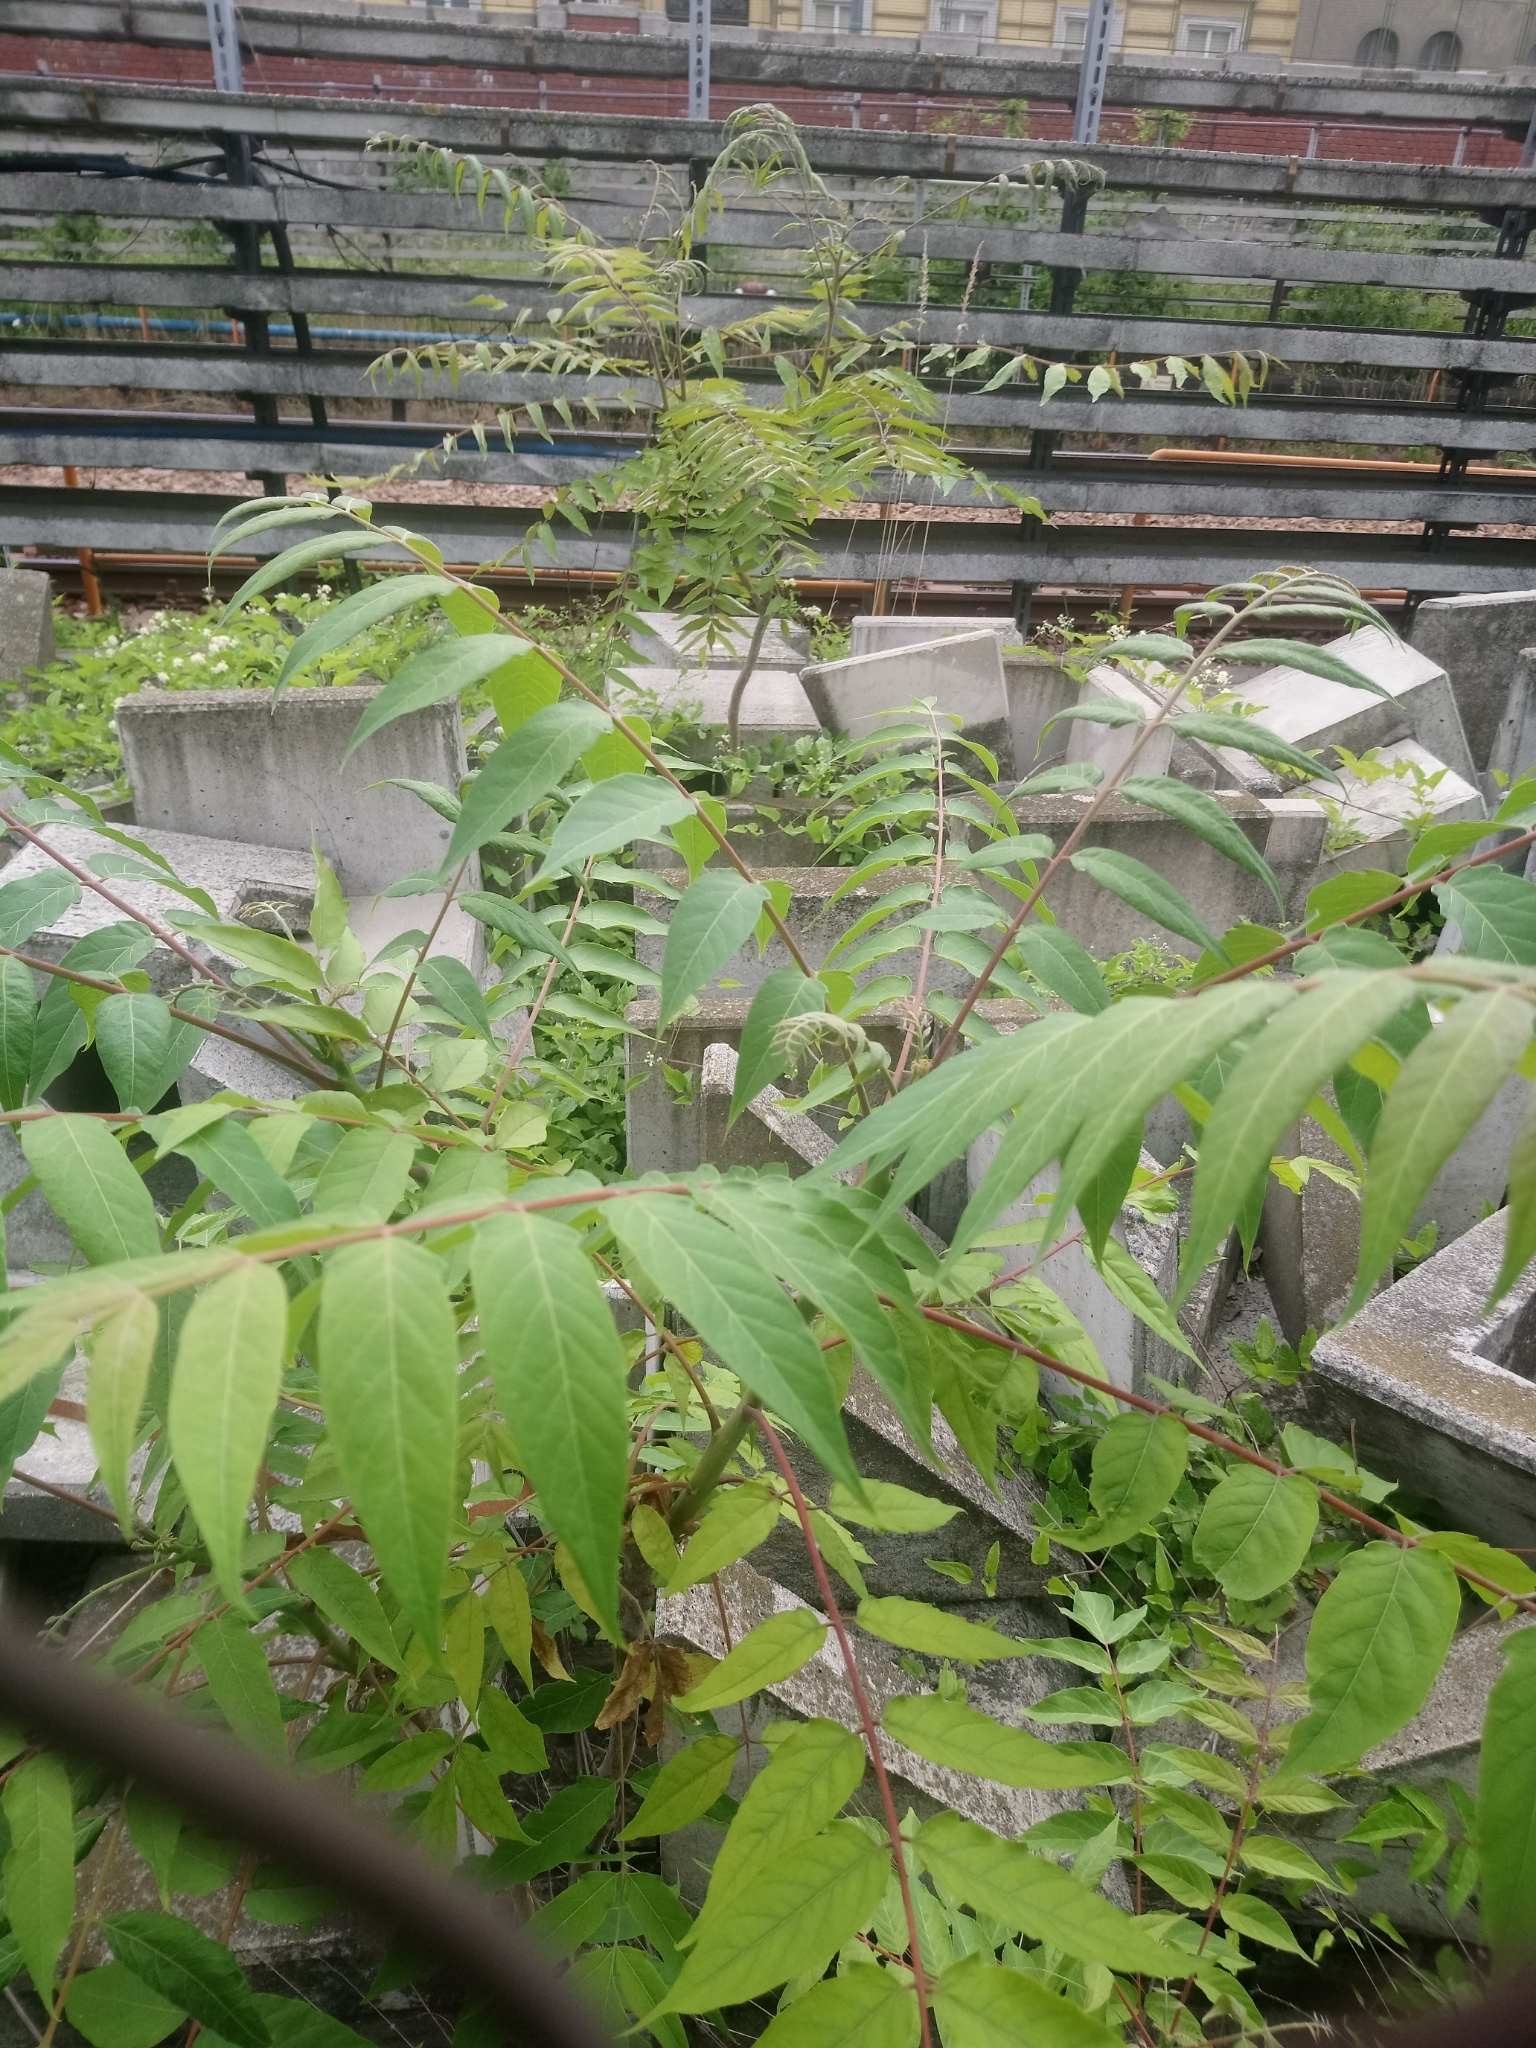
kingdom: Plantae
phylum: Tracheophyta
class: Magnoliopsida
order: Sapindales
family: Simaroubaceae
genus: Ailanthus
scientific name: Ailanthus altissima
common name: Tree-of-heaven
